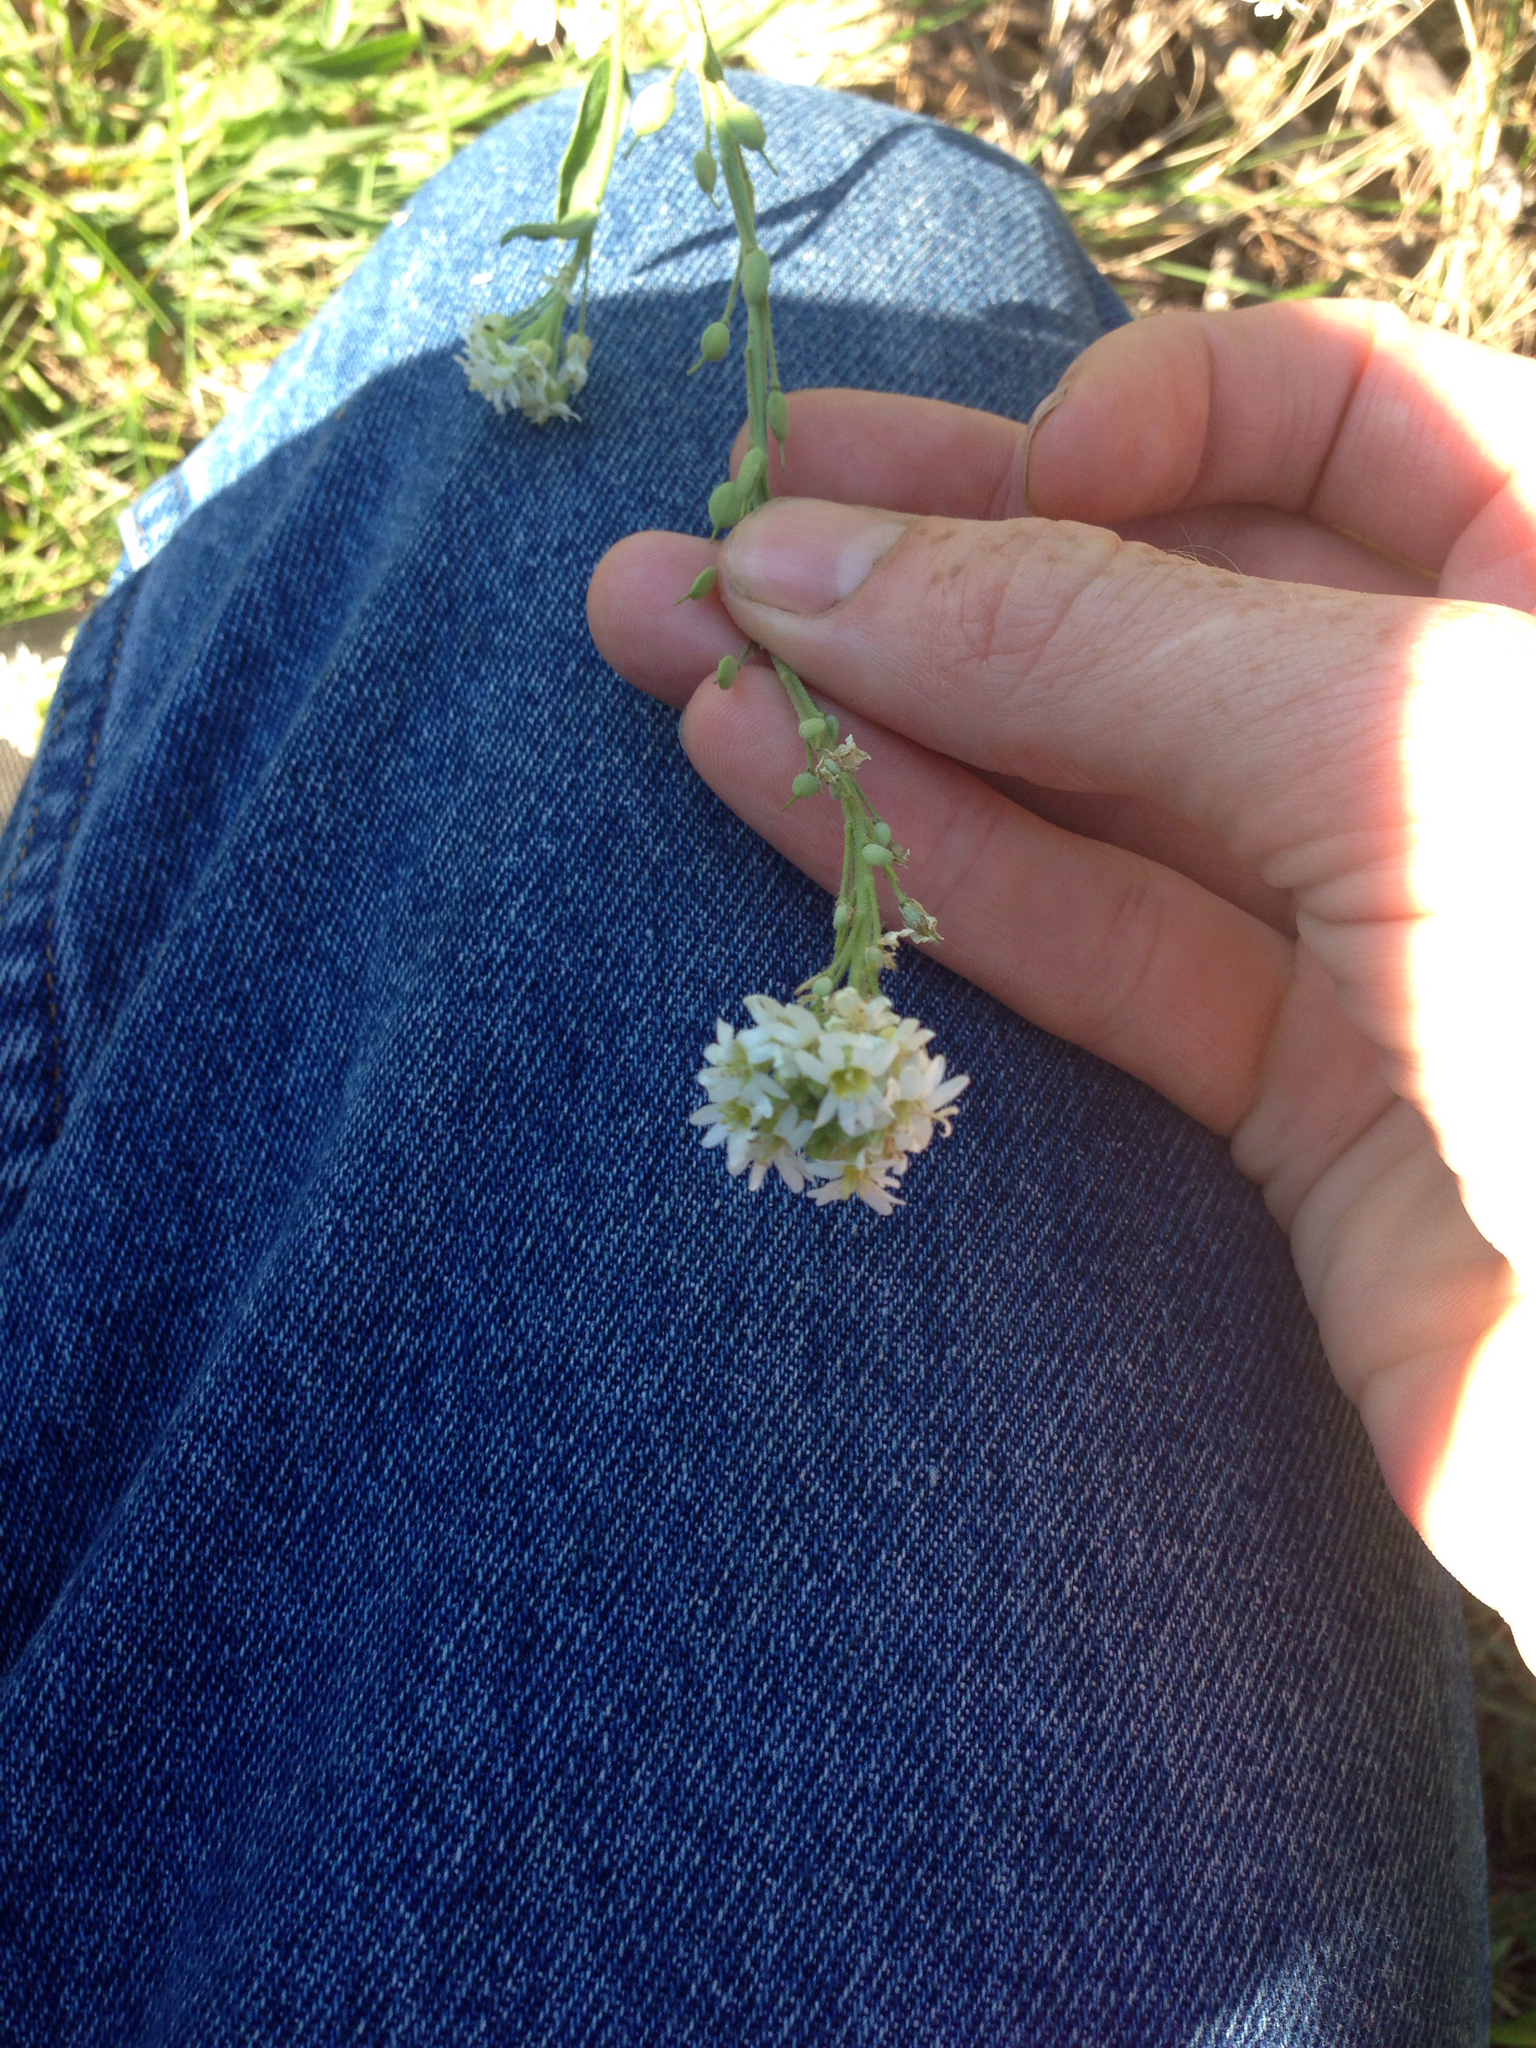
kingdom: Plantae
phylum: Tracheophyta
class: Magnoliopsida
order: Brassicales
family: Brassicaceae
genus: Berteroa
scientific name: Berteroa incana
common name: Hoary alison
